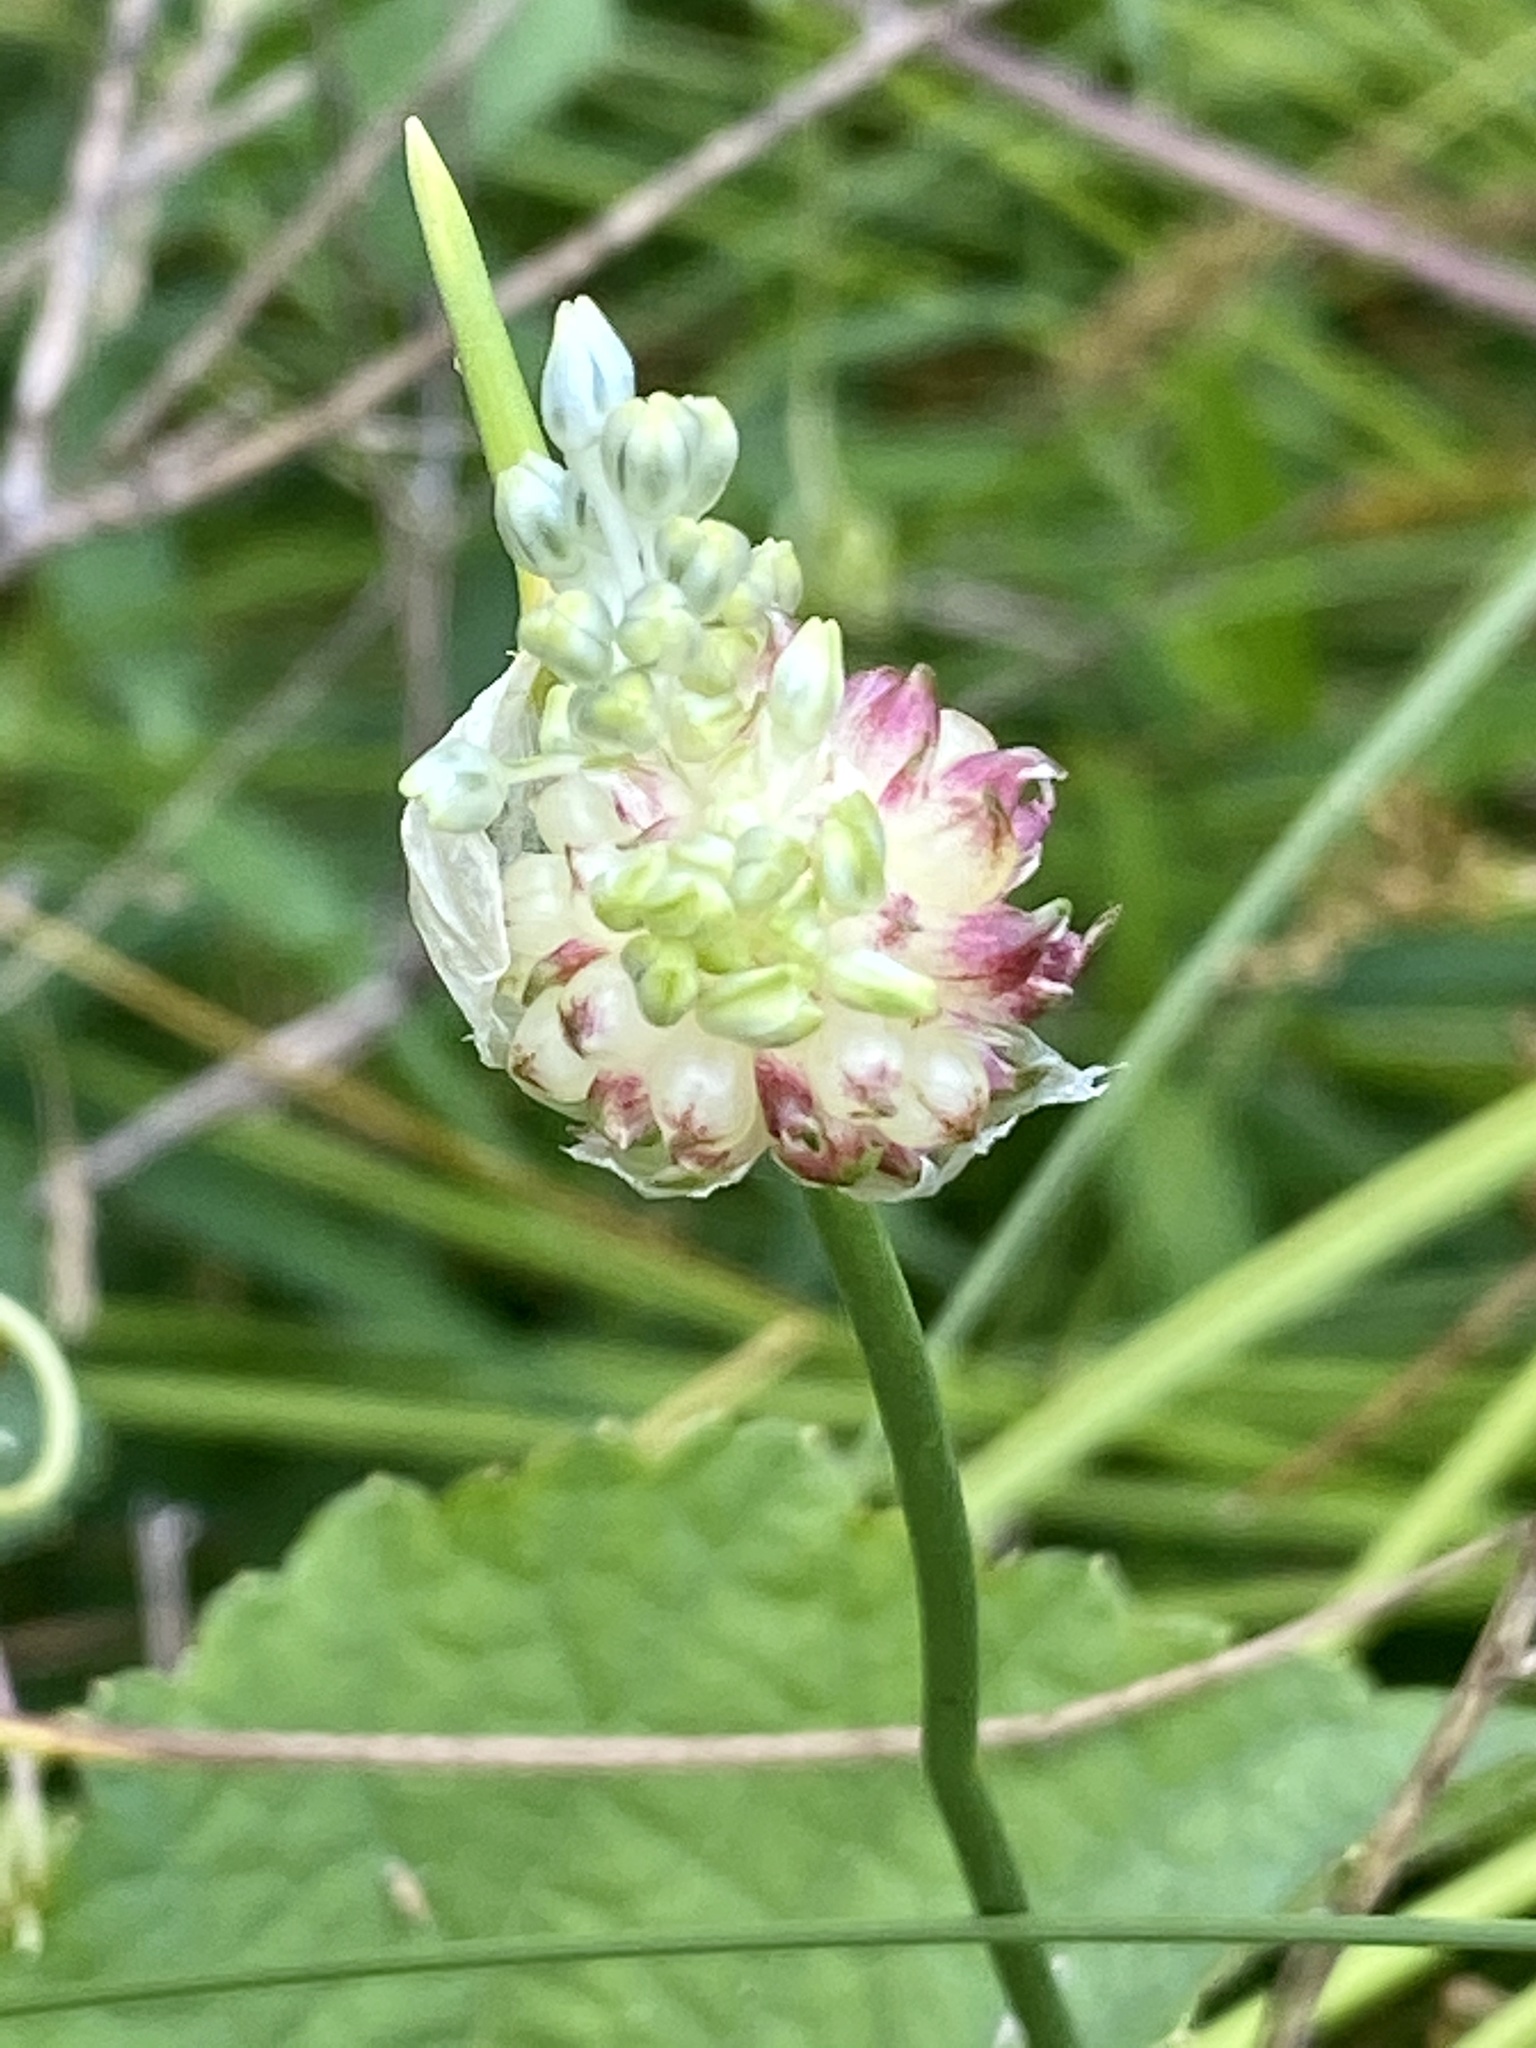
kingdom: Plantae
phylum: Tracheophyta
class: Liliopsida
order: Asparagales
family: Amaryllidaceae
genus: Allium
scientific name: Allium vineale
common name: Crow garlic
